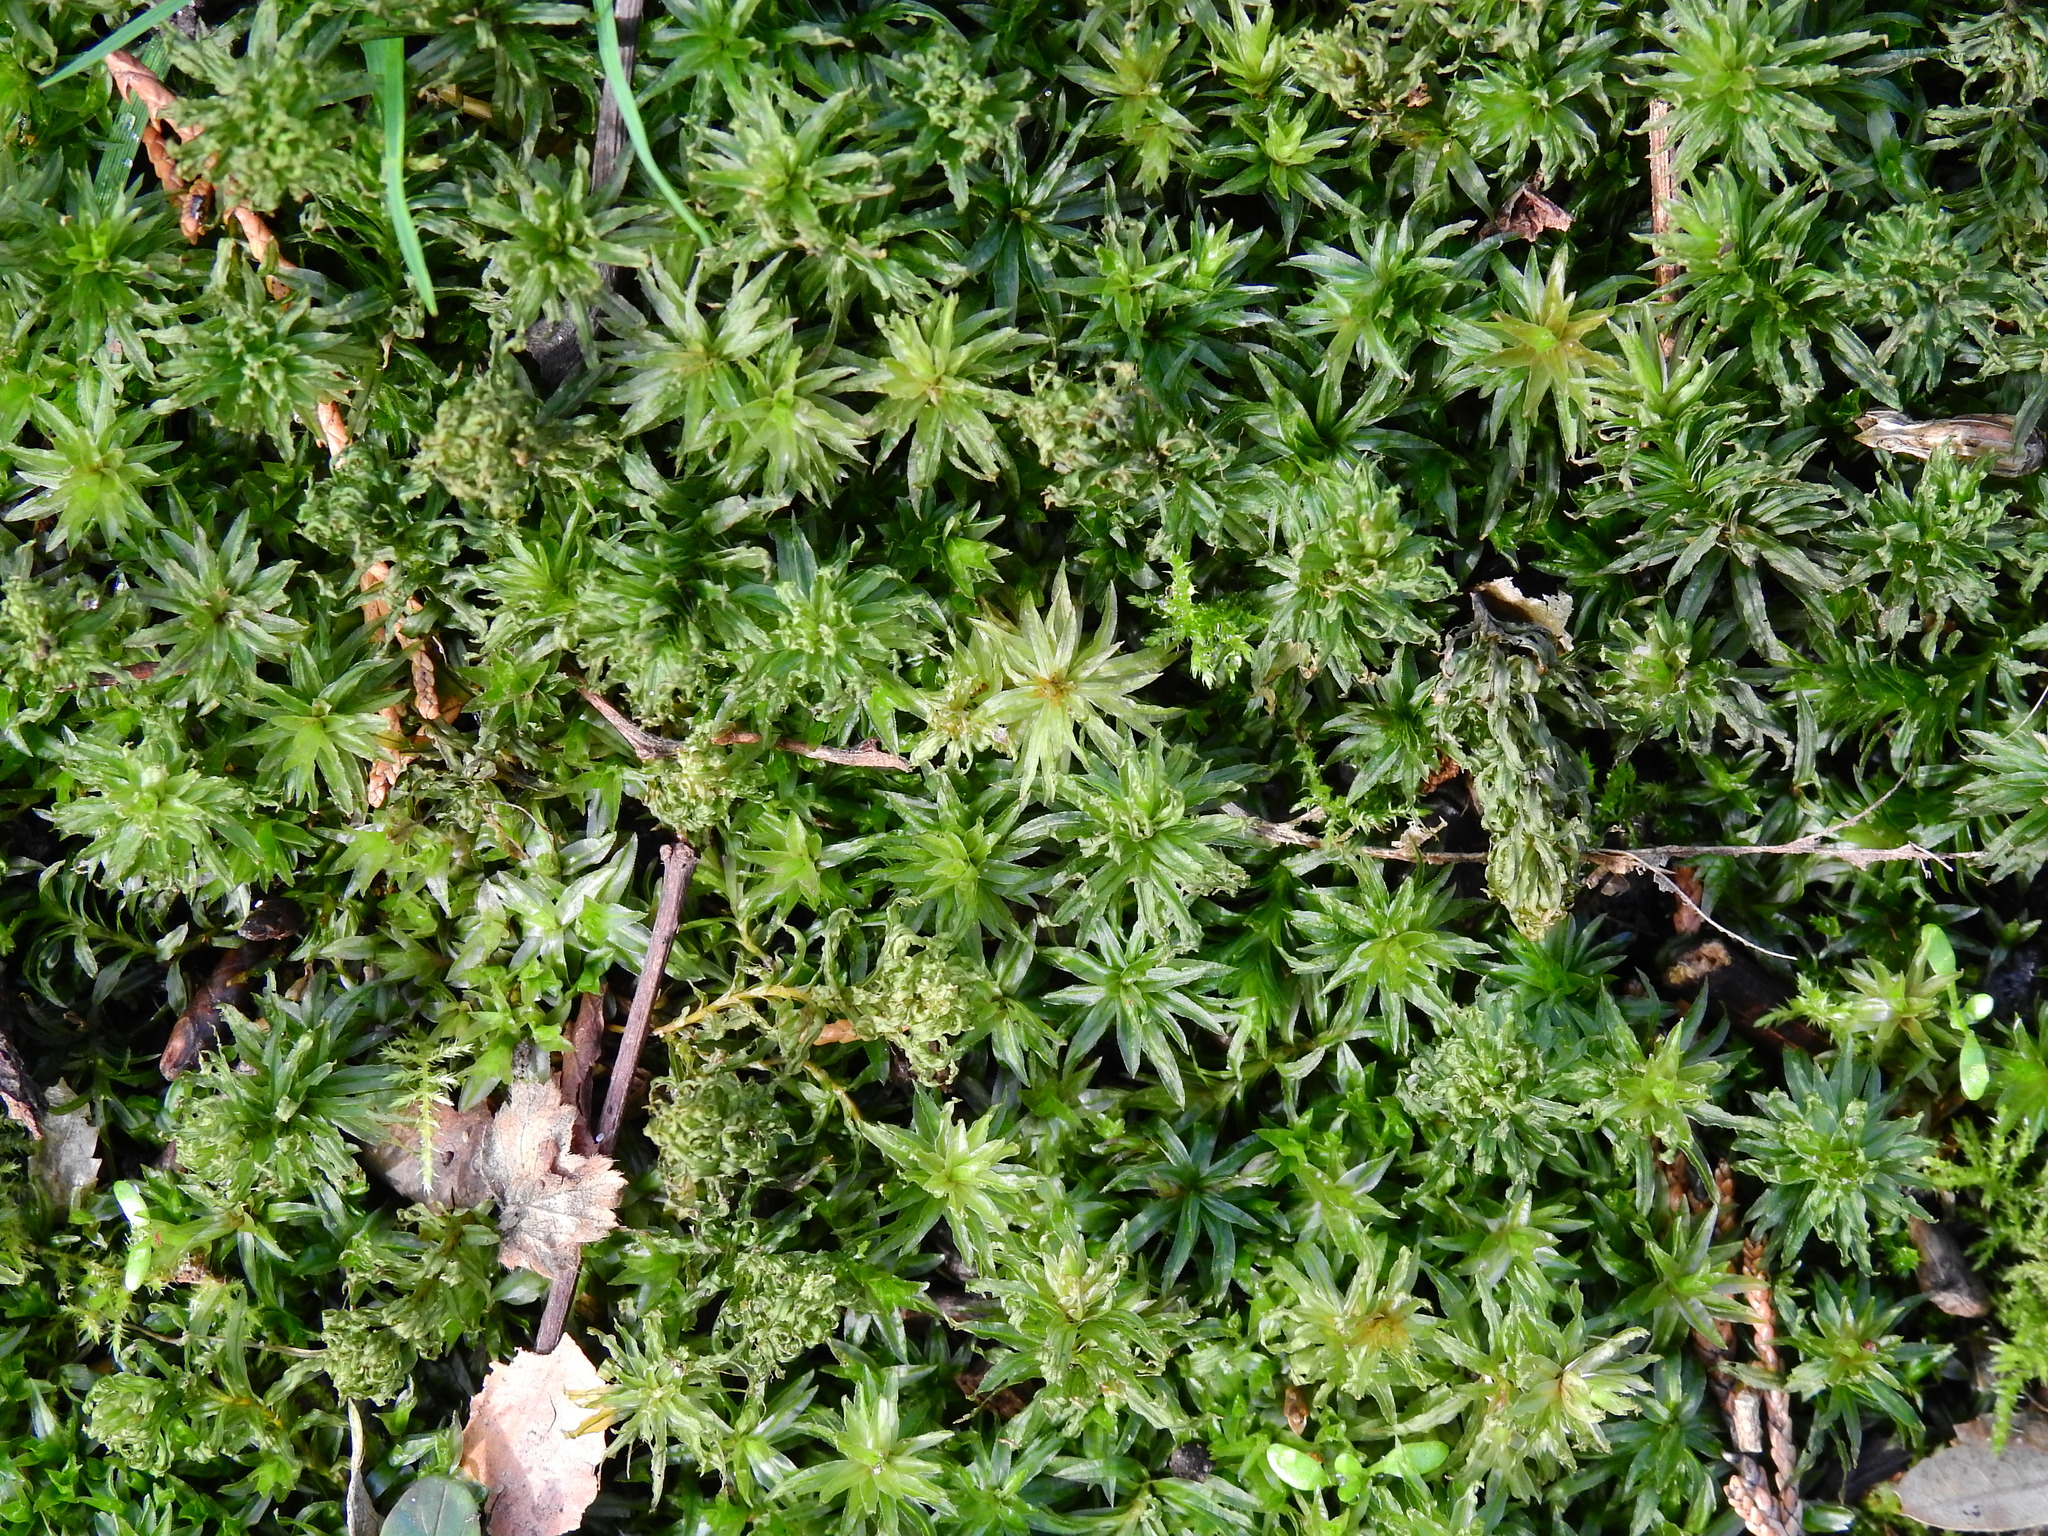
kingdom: Plantae
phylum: Bryophyta
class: Polytrichopsida
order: Polytrichales
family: Polytrichaceae
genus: Atrichum
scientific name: Atrichum undulatum
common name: Common smoothcap
